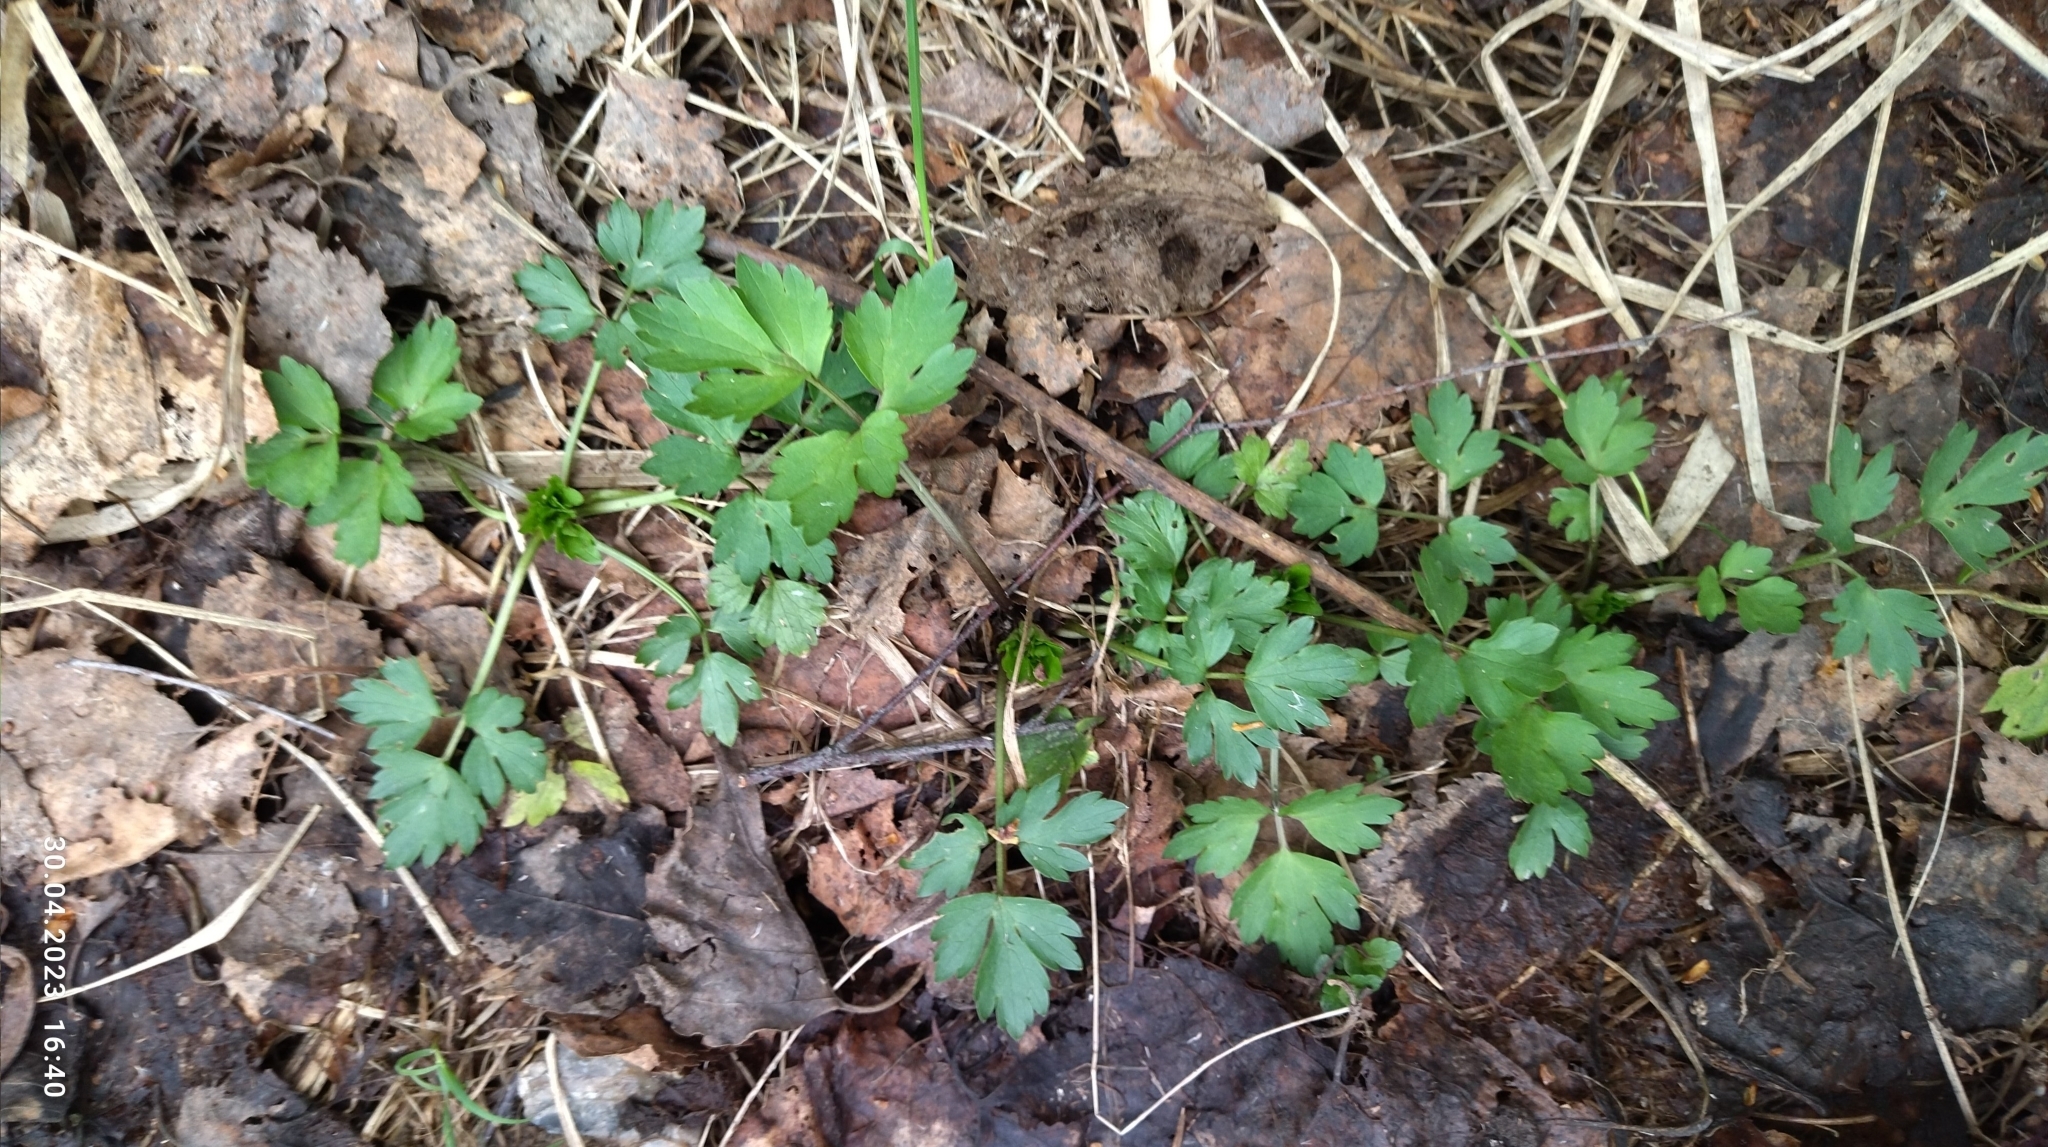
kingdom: Plantae
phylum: Tracheophyta
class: Magnoliopsida
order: Ranunculales
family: Ranunculaceae
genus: Ranunculus
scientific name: Ranunculus repens
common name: Creeping buttercup
